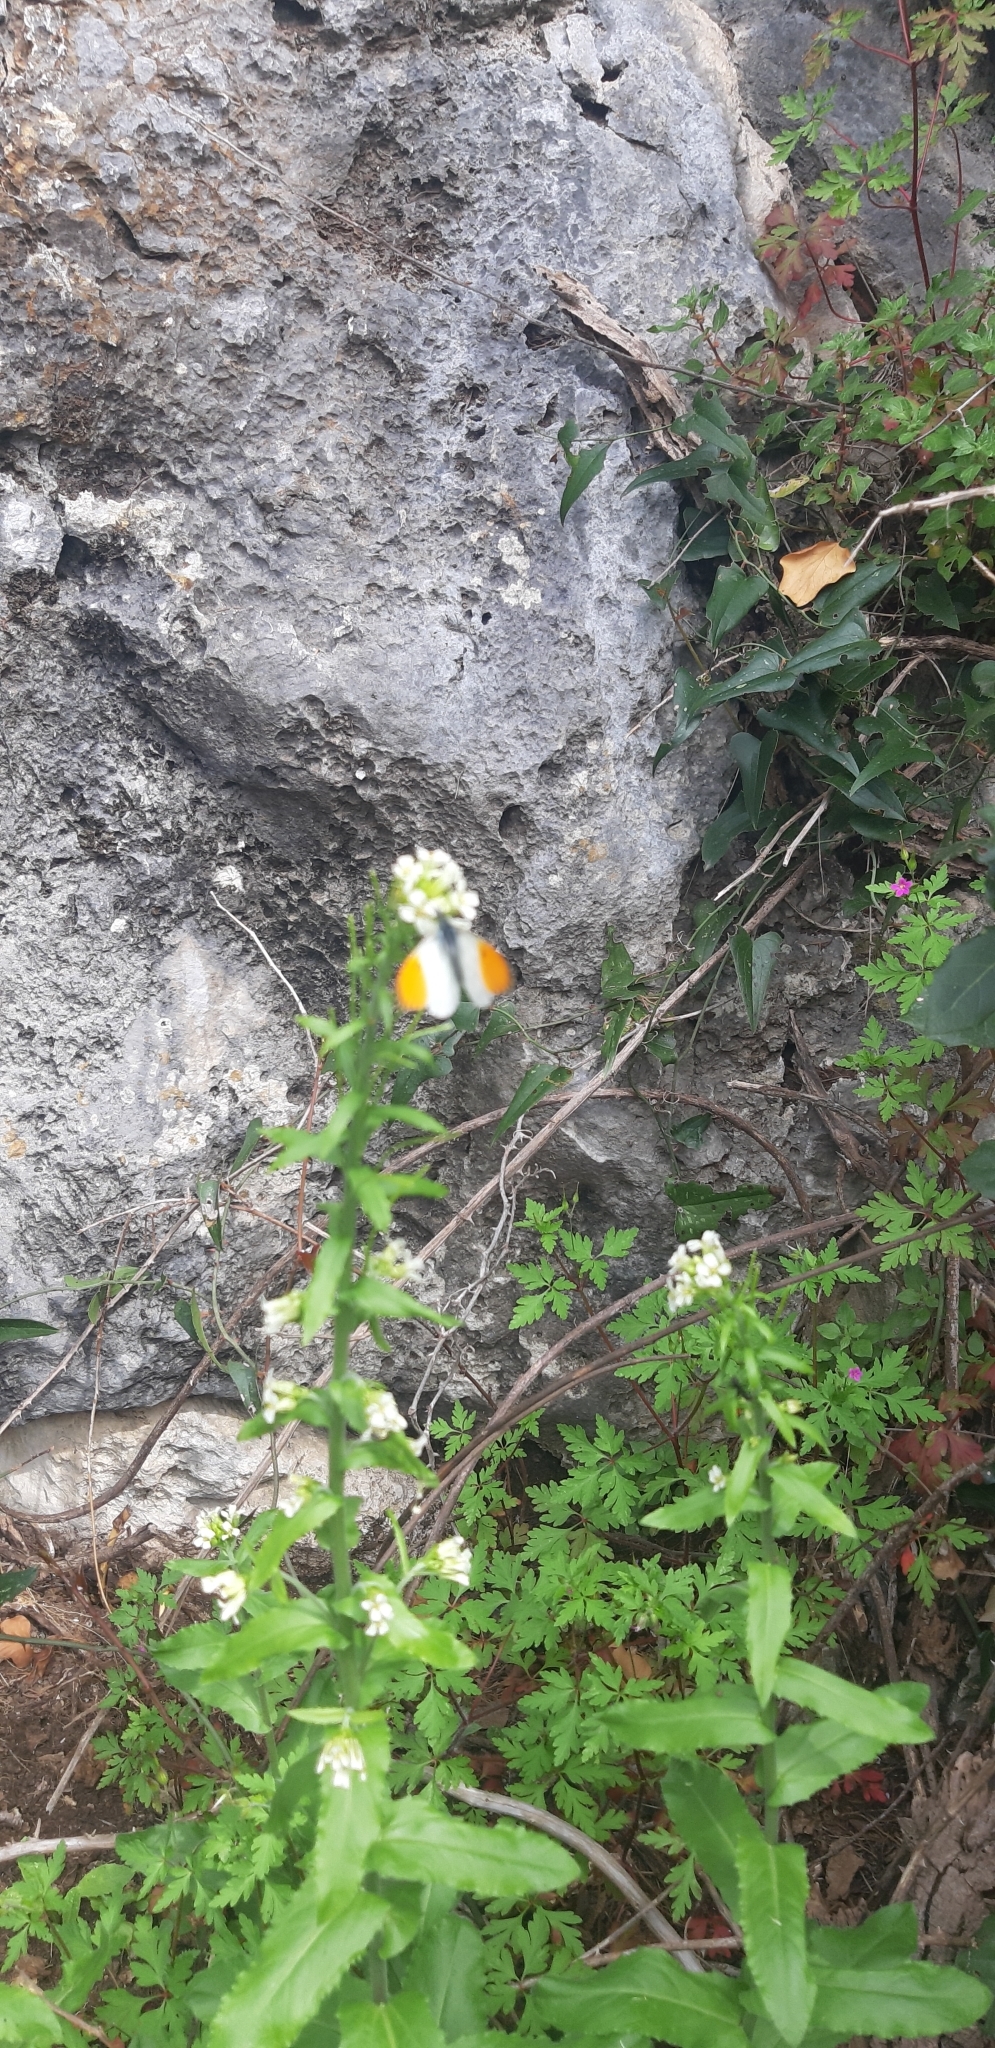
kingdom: Animalia
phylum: Arthropoda
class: Insecta
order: Lepidoptera
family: Pieridae
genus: Anthocharis
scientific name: Anthocharis cardamines
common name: Orange-tip
